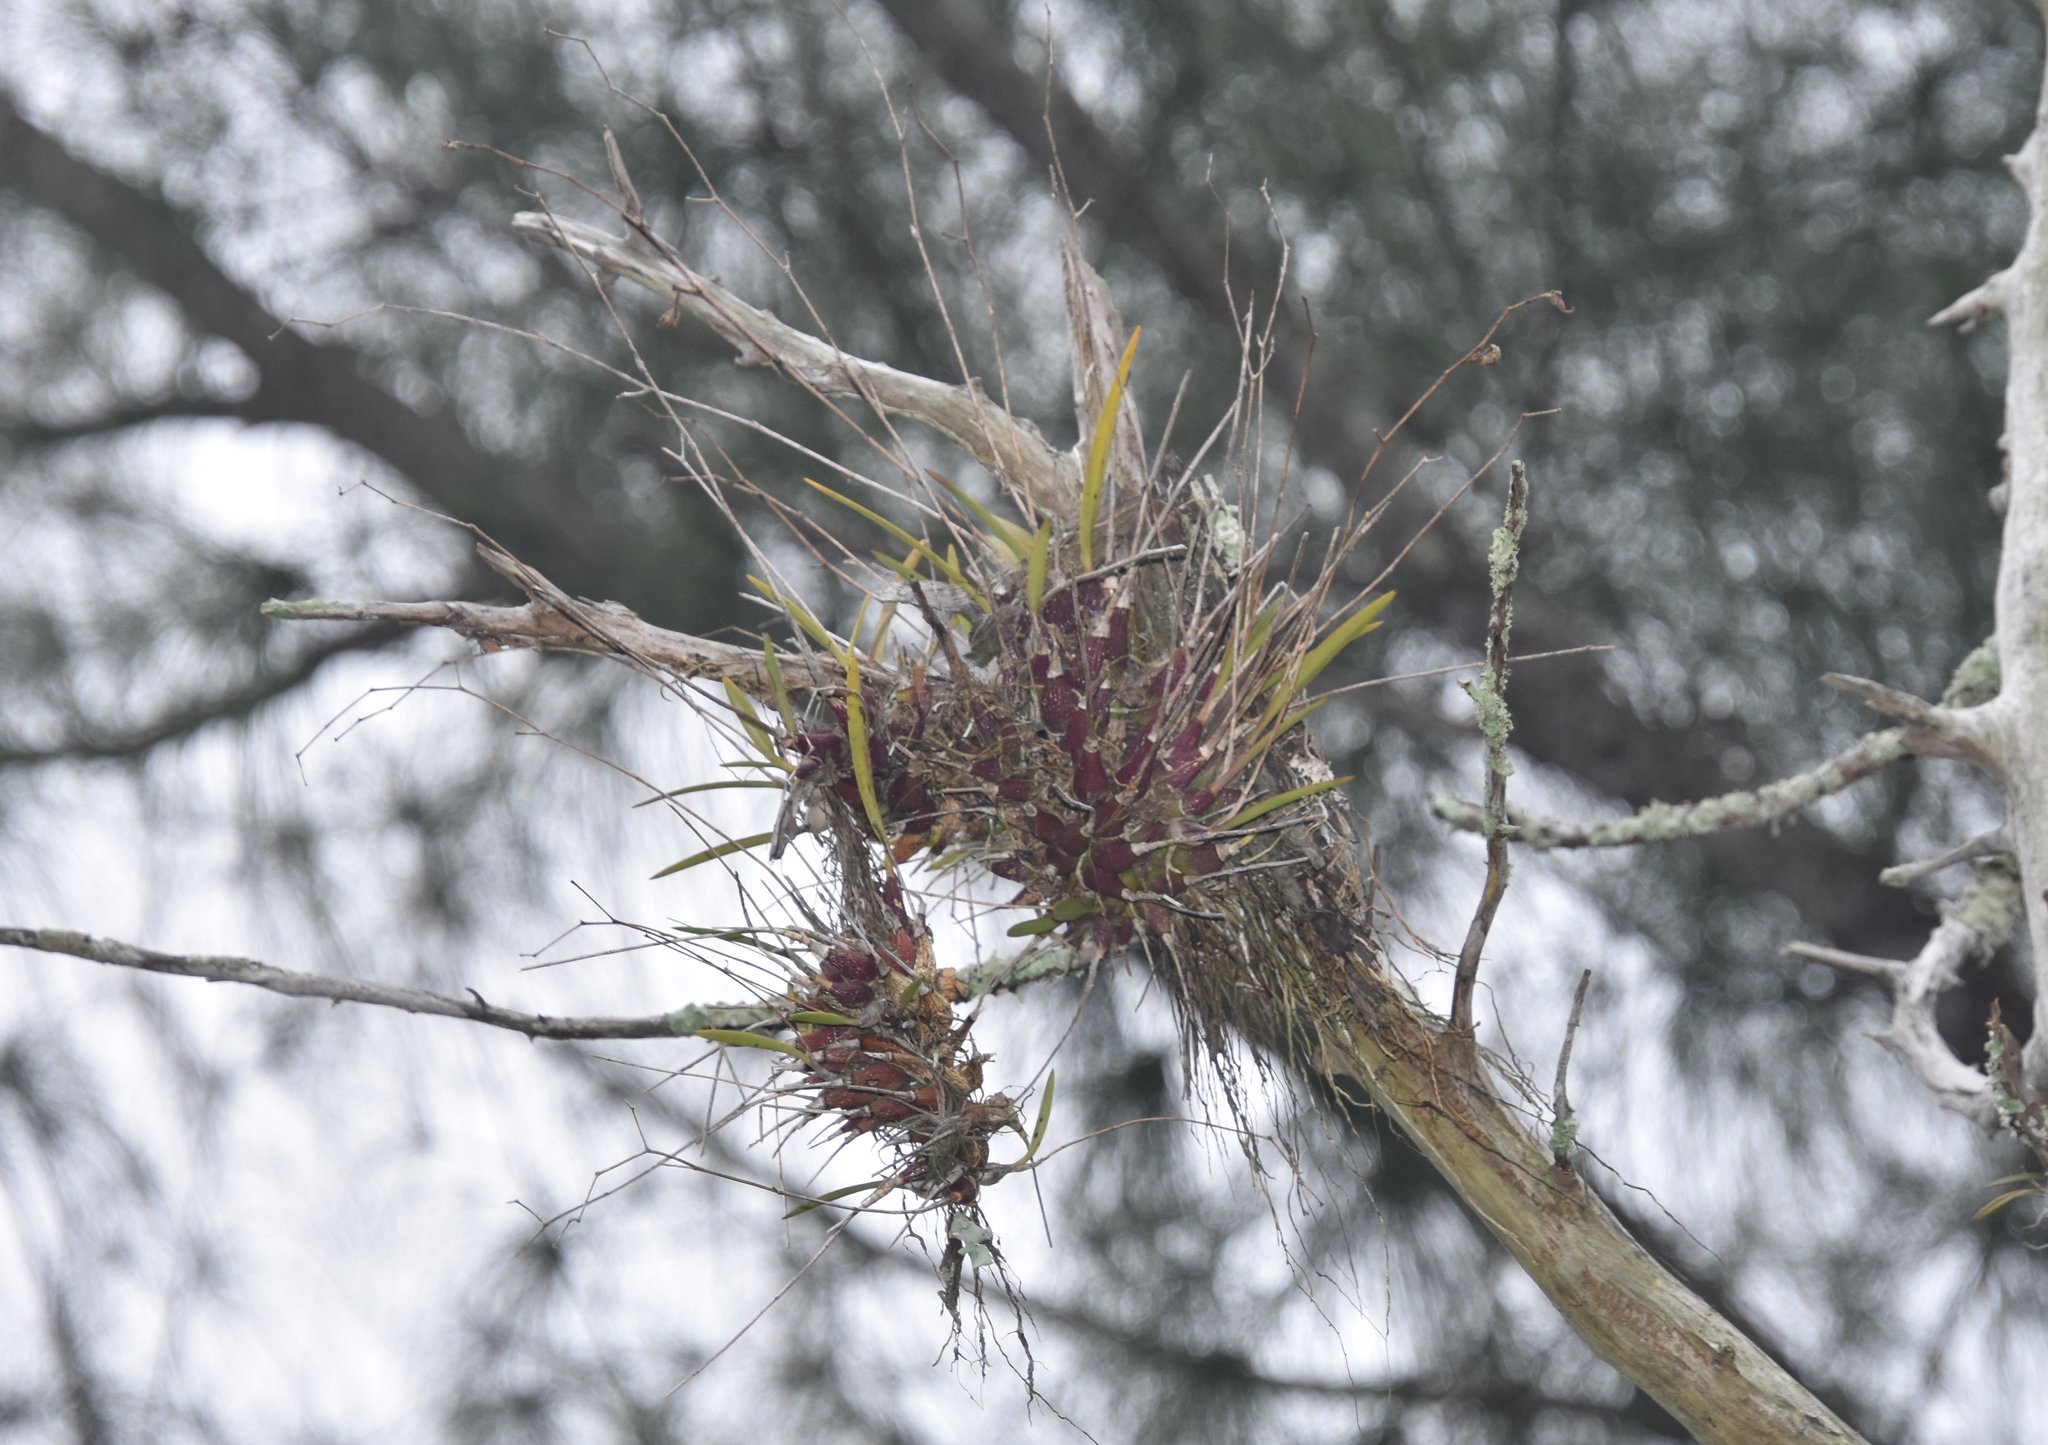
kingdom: Plantae
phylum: Tracheophyta
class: Liliopsida
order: Asparagales
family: Orchidaceae
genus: Encyclia
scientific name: Encyclia tampensis
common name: Florida butterfly orchid
